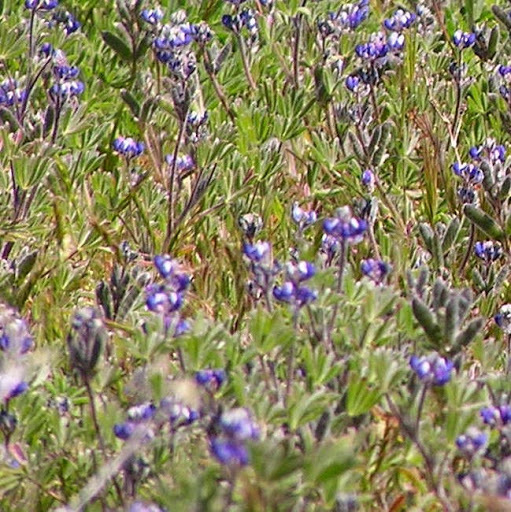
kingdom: Plantae
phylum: Tracheophyta
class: Magnoliopsida
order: Fabales
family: Fabaceae
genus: Lupinus
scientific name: Lupinus bicolor
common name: Miniature lupine
